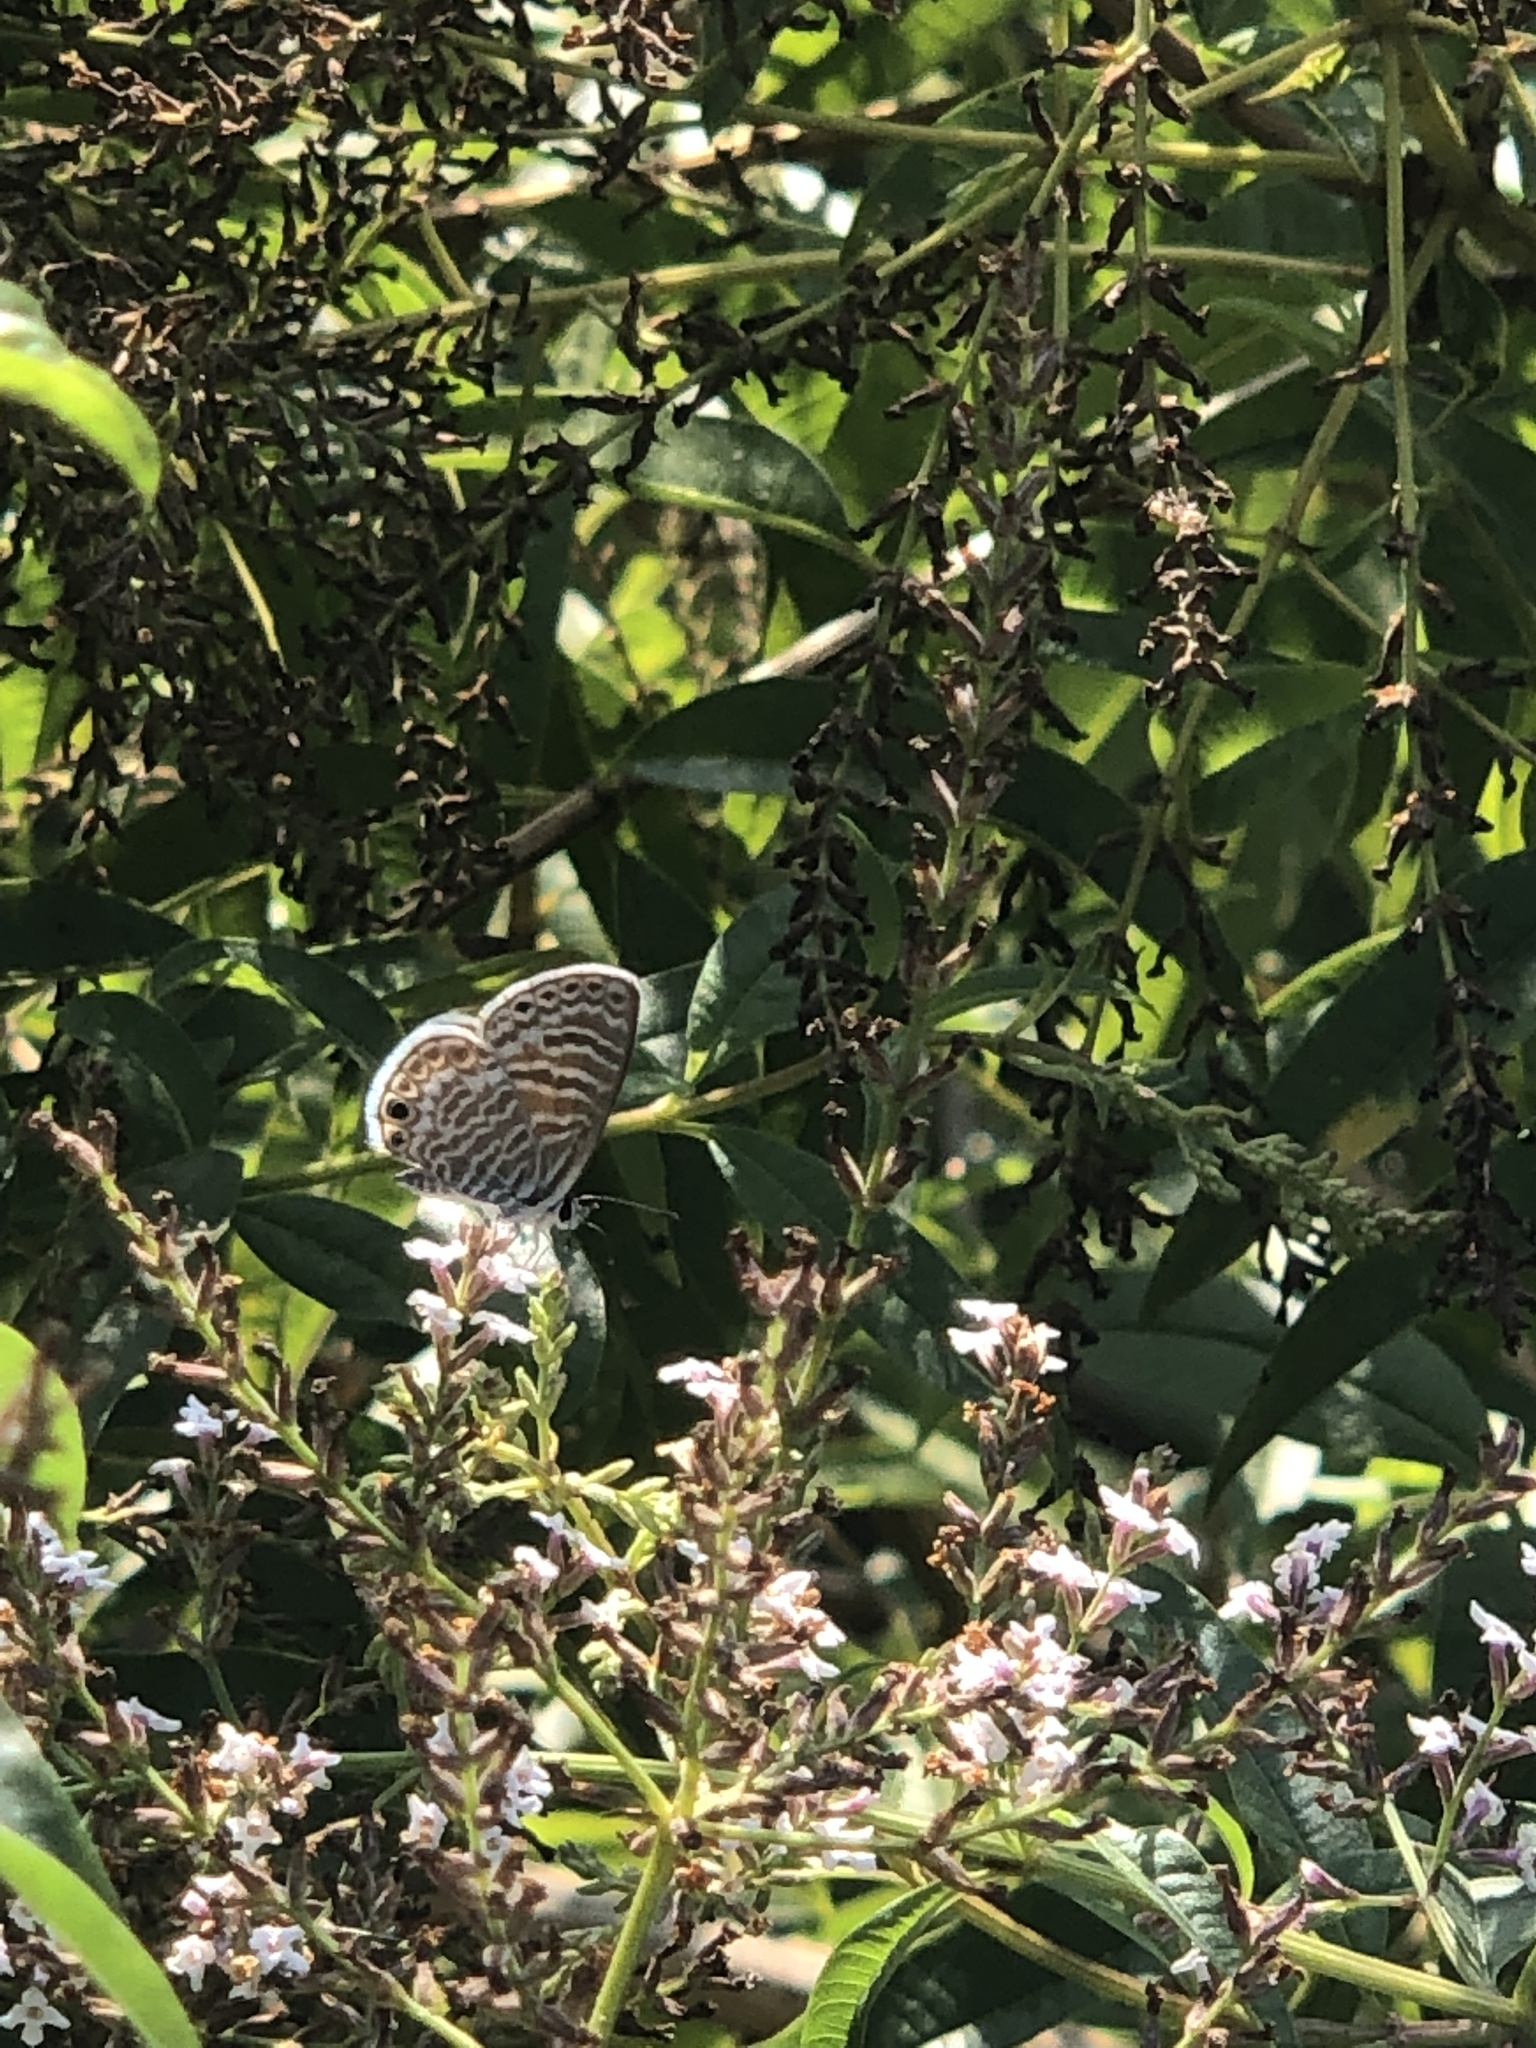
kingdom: Animalia
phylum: Arthropoda
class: Insecta
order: Lepidoptera
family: Lycaenidae
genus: Leptotes
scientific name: Leptotes marina
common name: Marine blue
